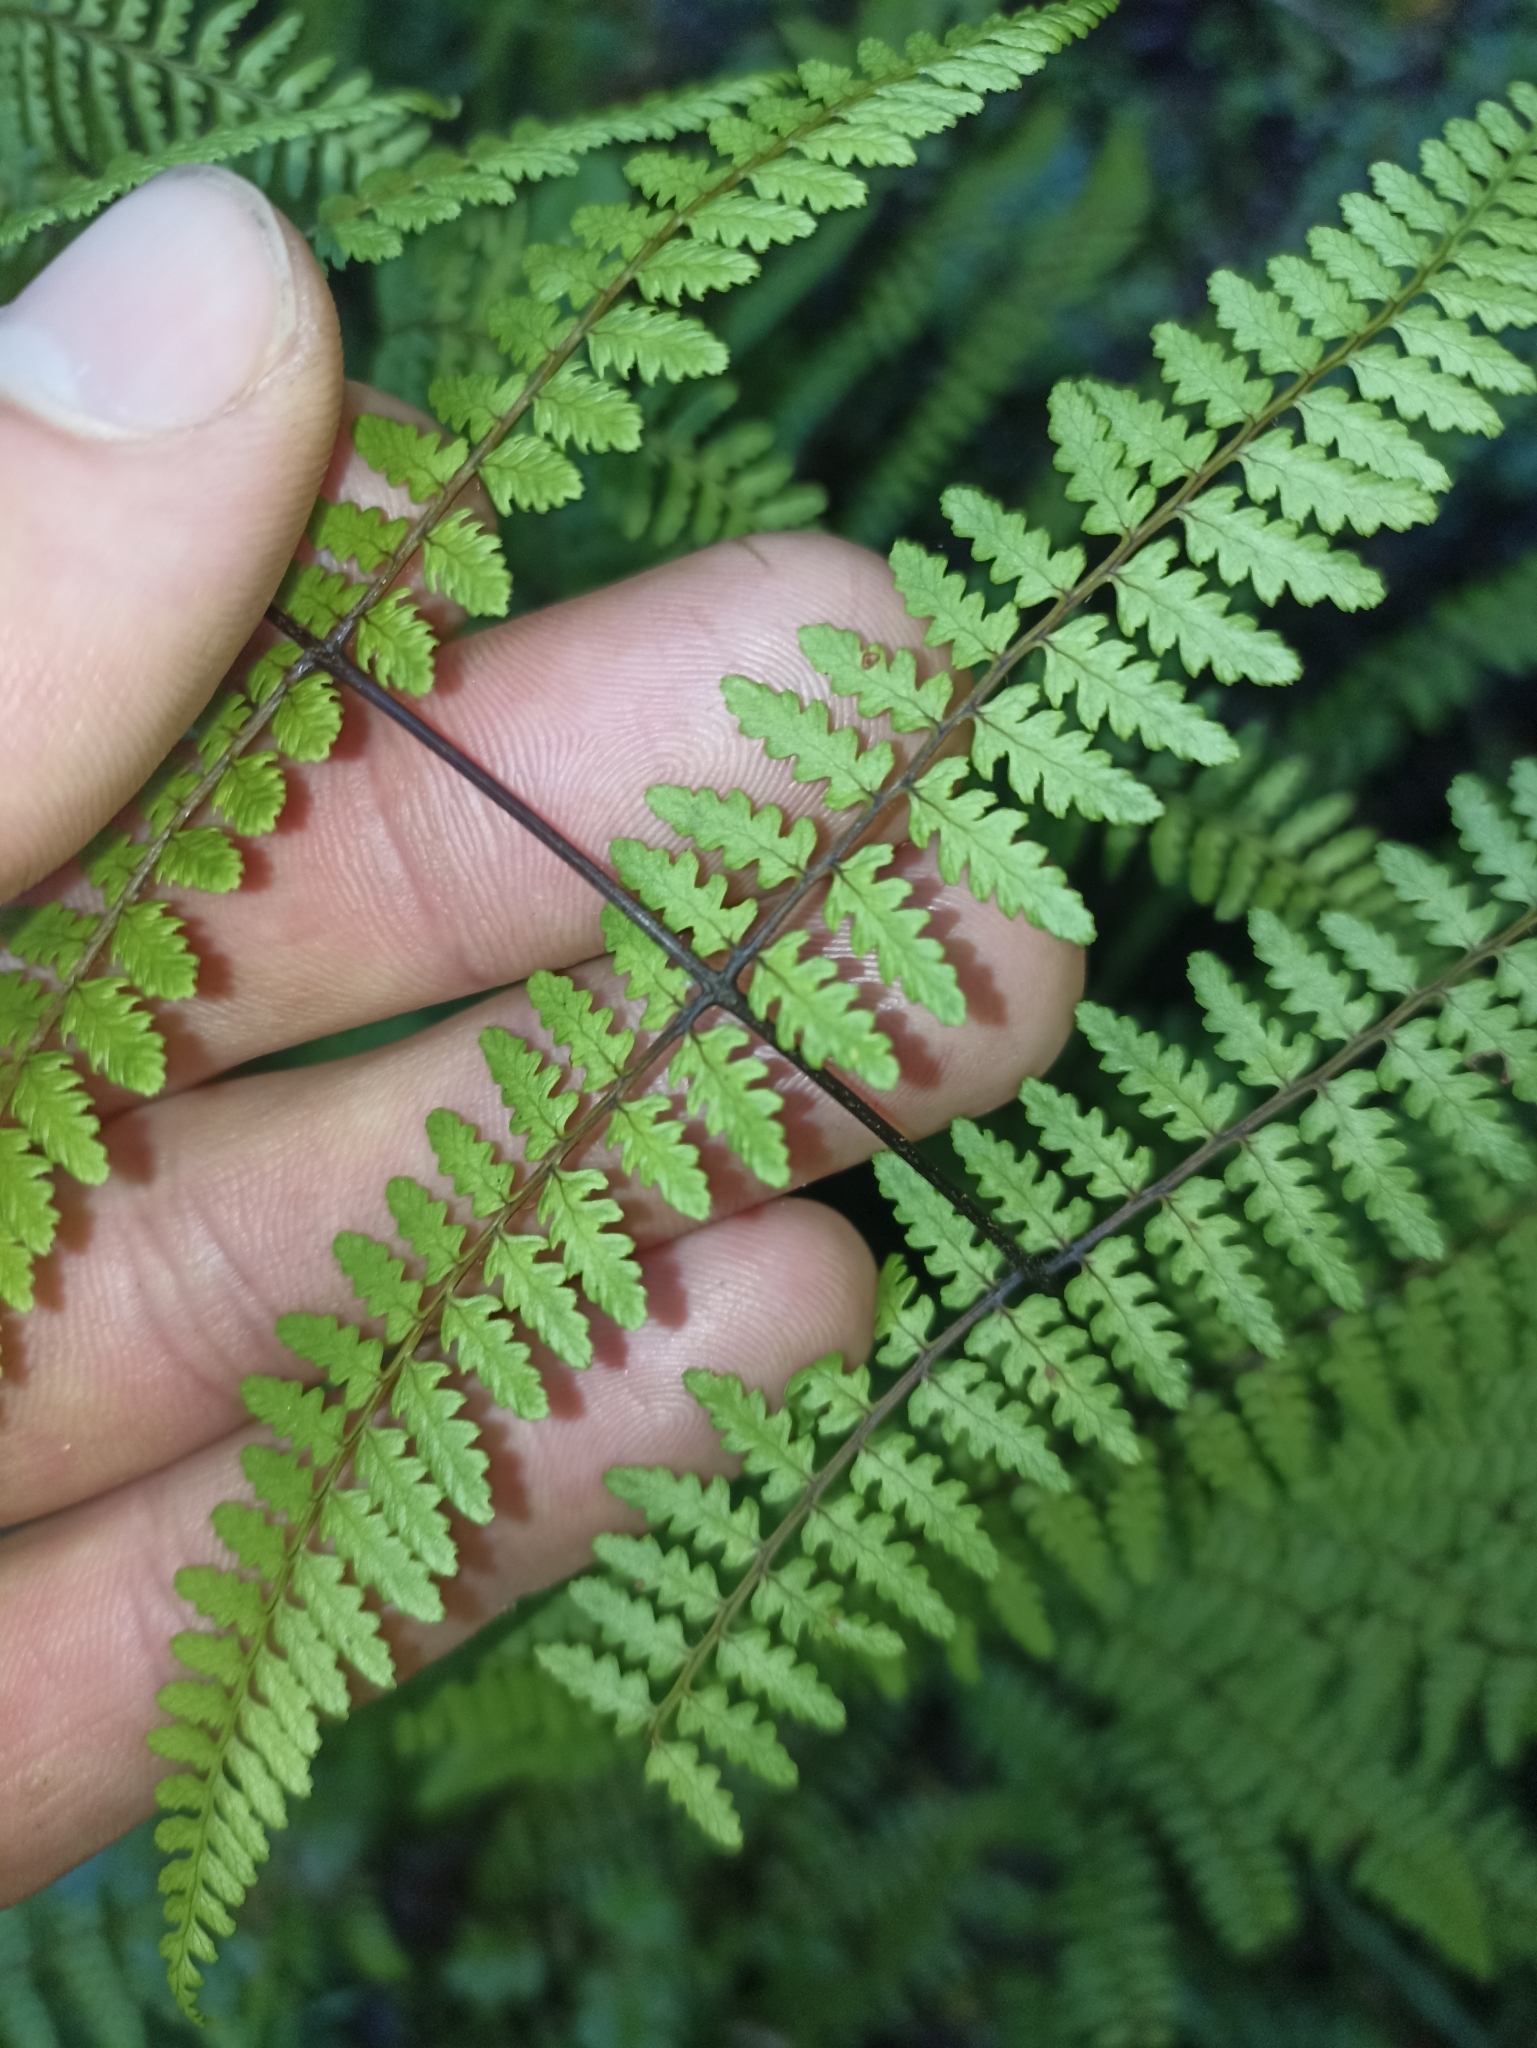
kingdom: Plantae
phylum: Tracheophyta
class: Polypodiopsida
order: Polypodiales
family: Dennstaedtiaceae
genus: Hiya
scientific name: Hiya distans
